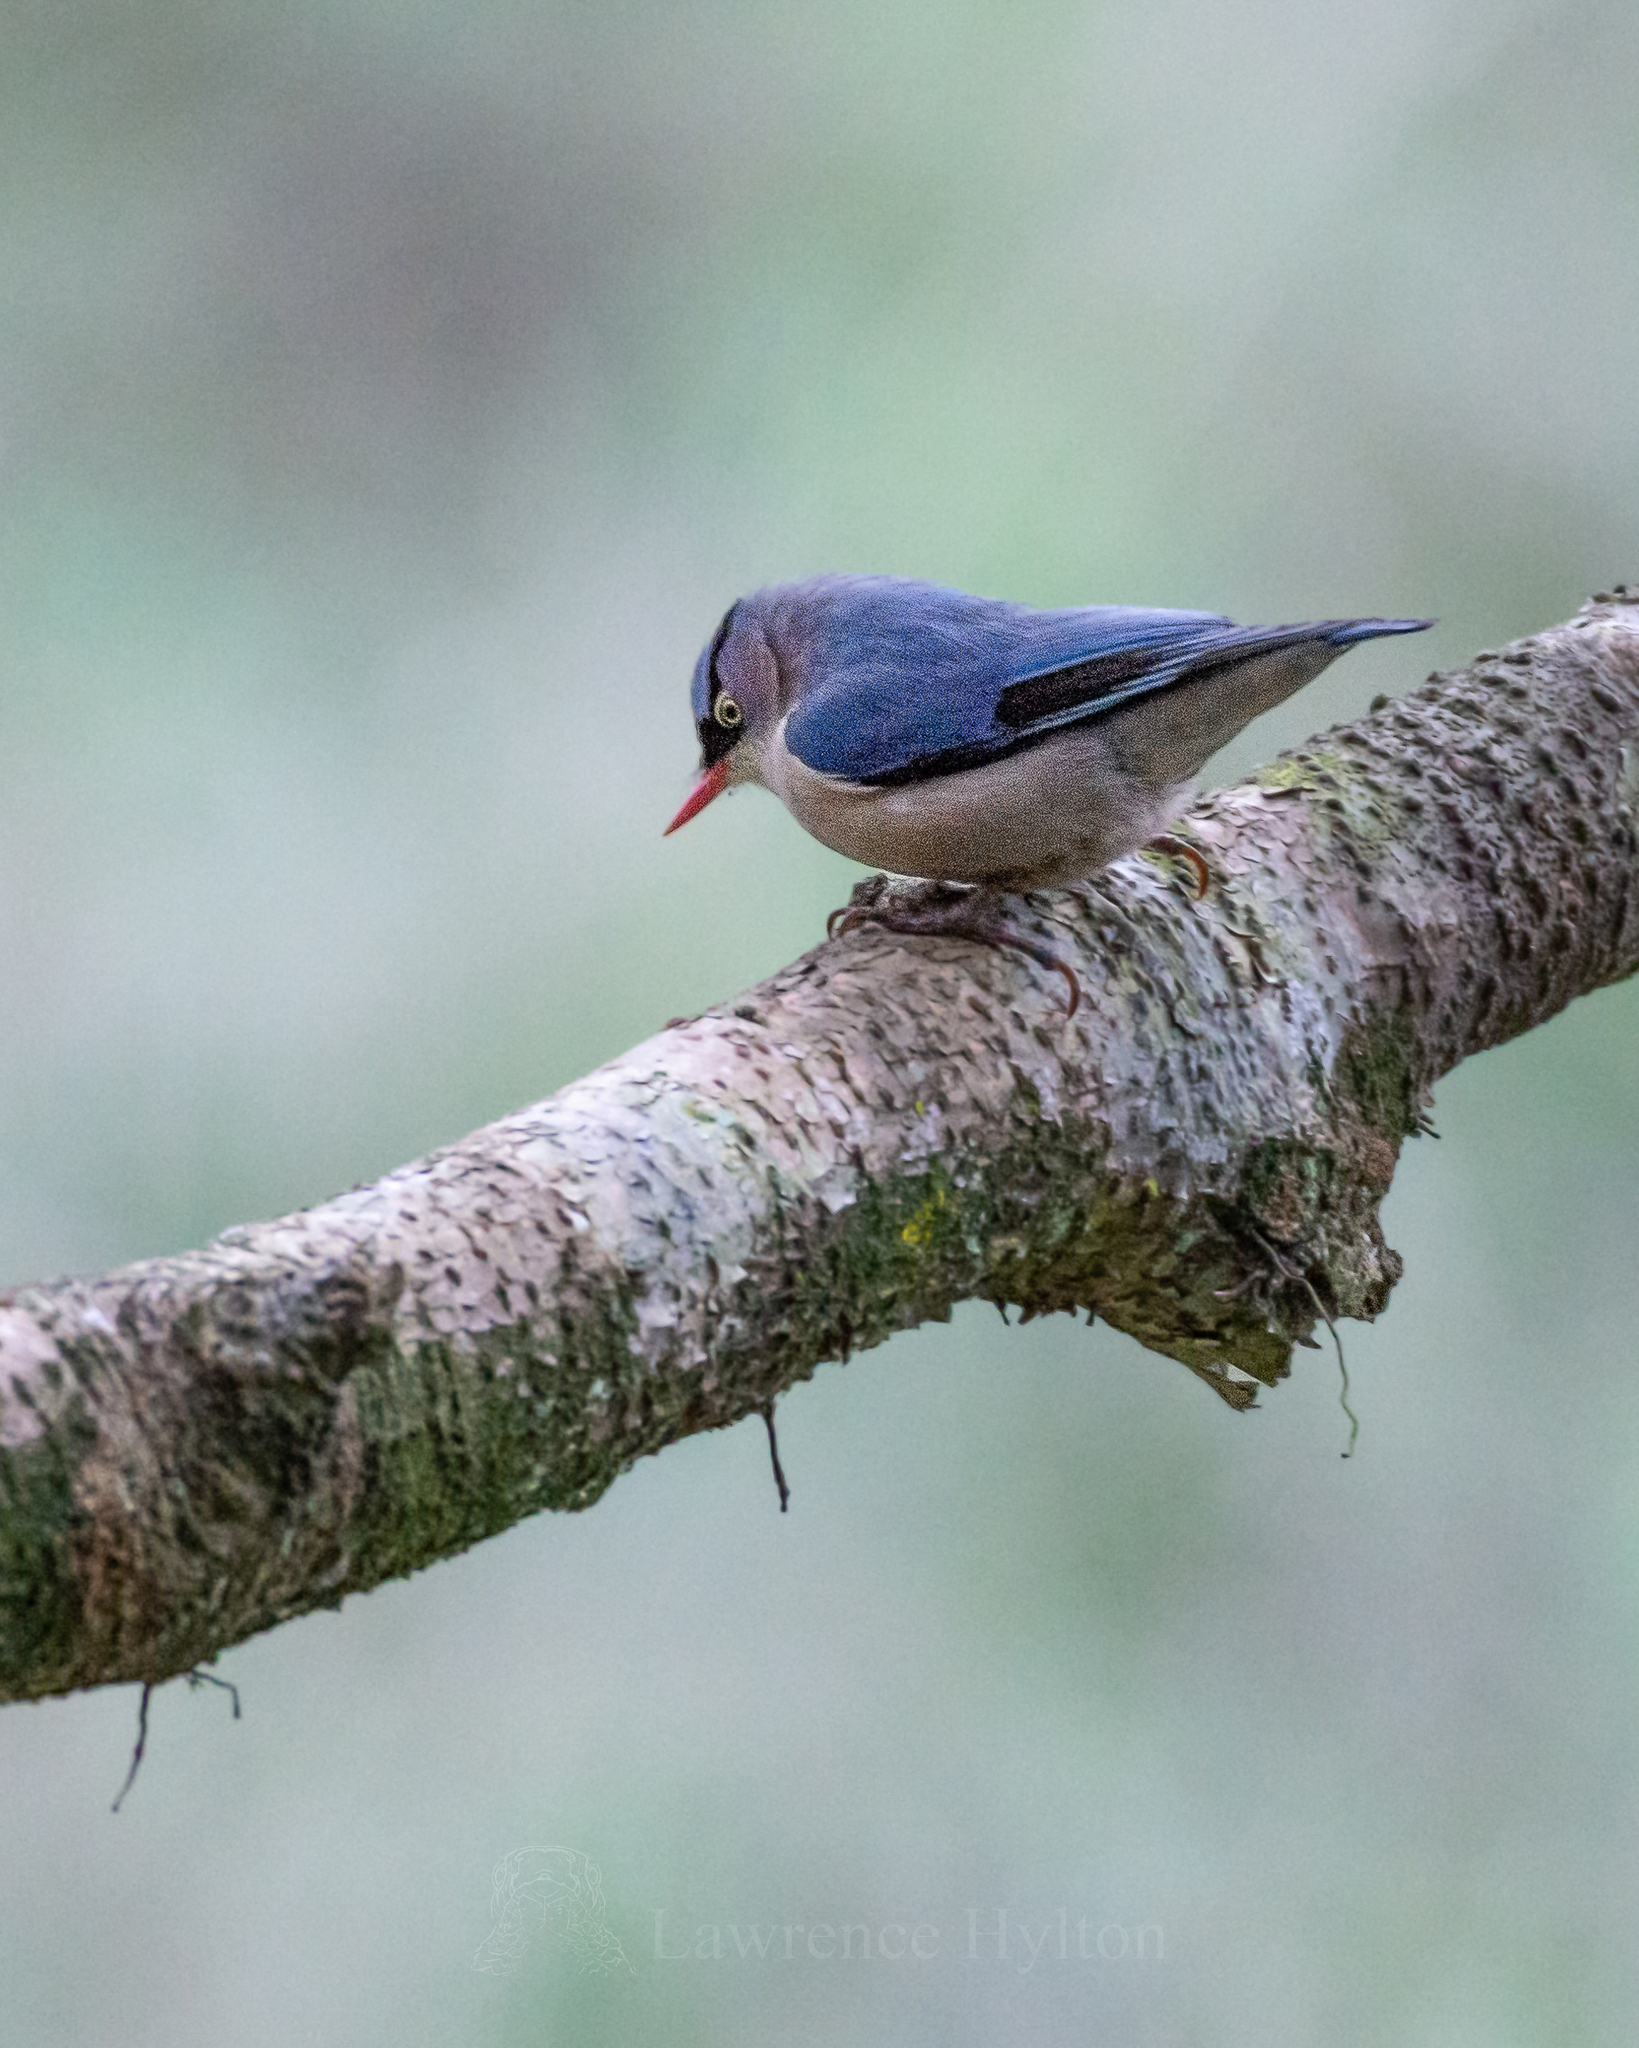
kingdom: Animalia
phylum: Chordata
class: Aves
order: Passeriformes
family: Sittidae
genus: Sitta
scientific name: Sitta frontalis
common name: Velvet-fronted nuthatch
